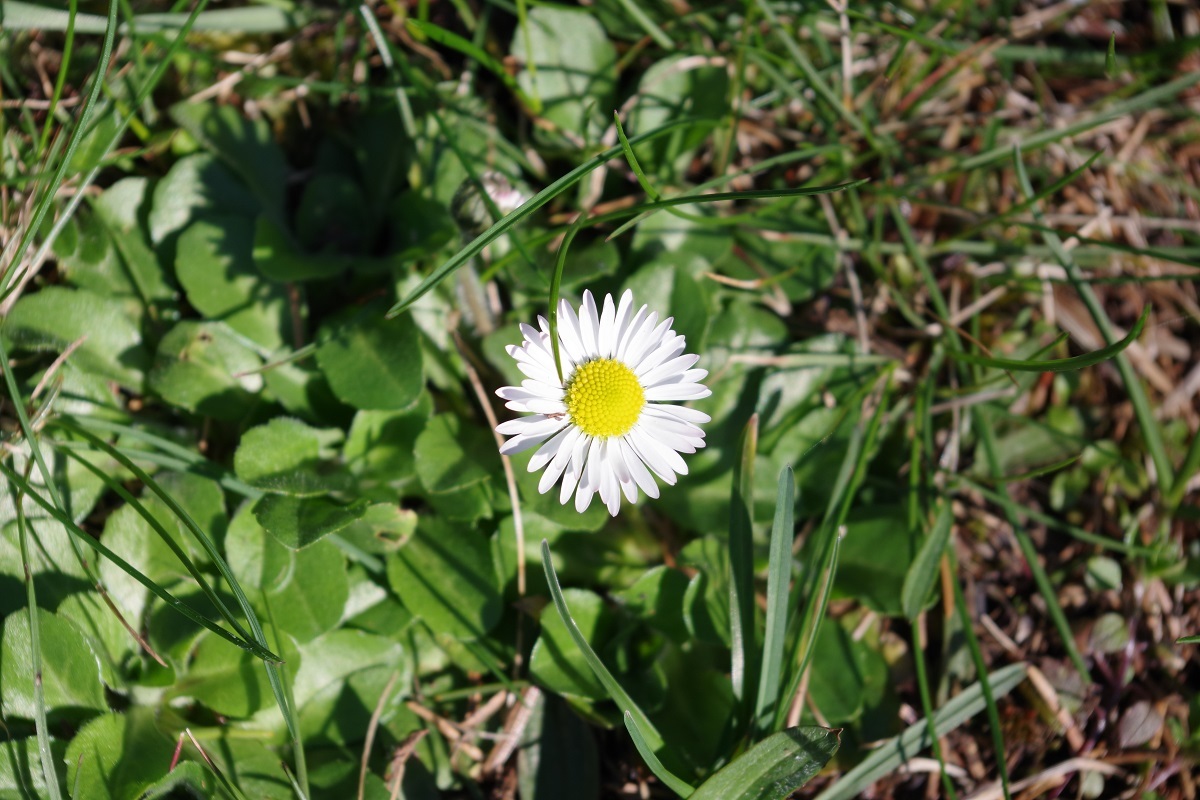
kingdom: Plantae
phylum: Tracheophyta
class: Magnoliopsida
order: Asterales
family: Asteraceae
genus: Bellis
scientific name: Bellis perennis
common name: Lawndaisy
